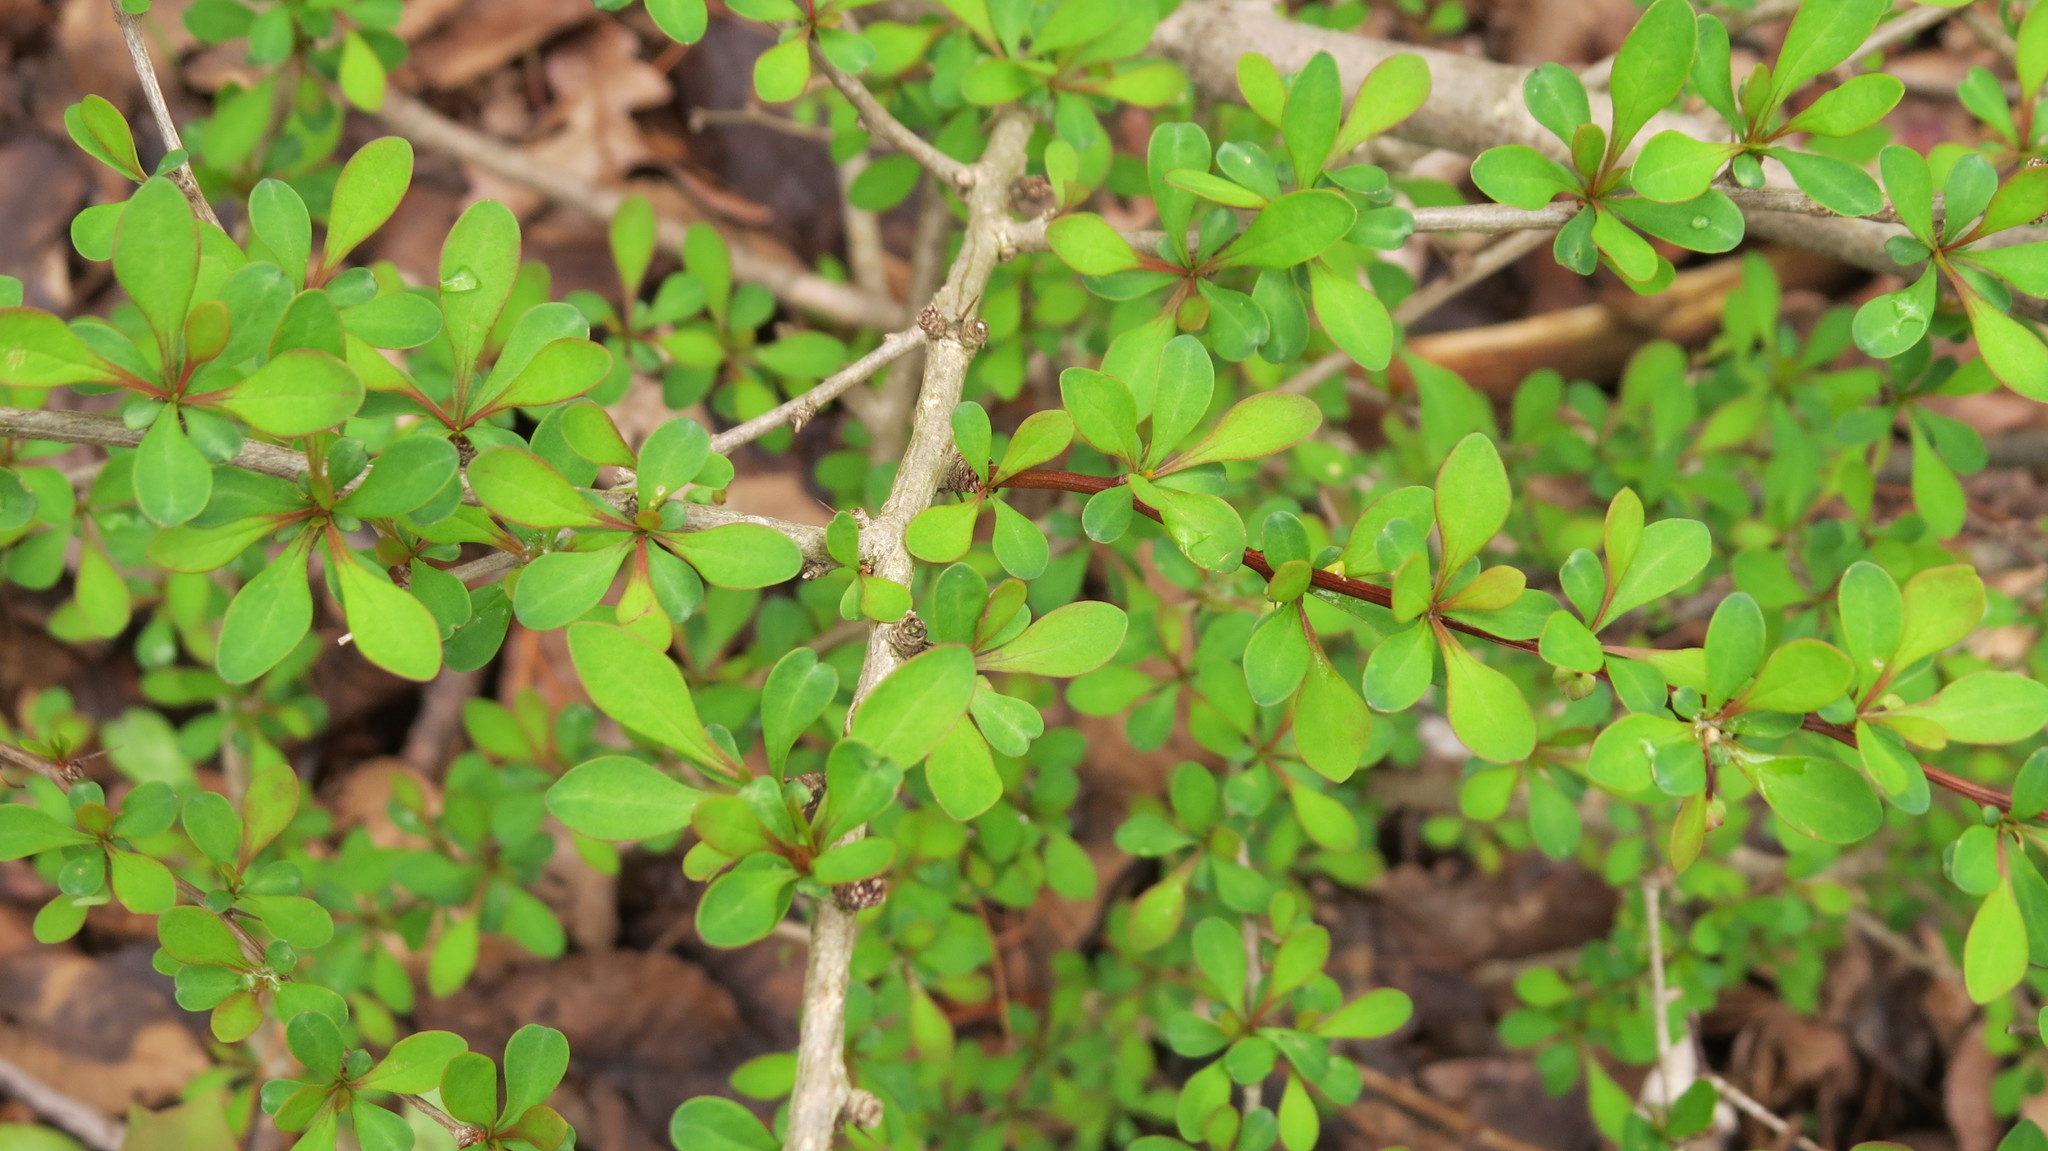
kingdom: Plantae
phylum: Tracheophyta
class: Magnoliopsida
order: Ranunculales
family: Berberidaceae
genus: Berberis
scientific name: Berberis thunbergii
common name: Japanese barberry
